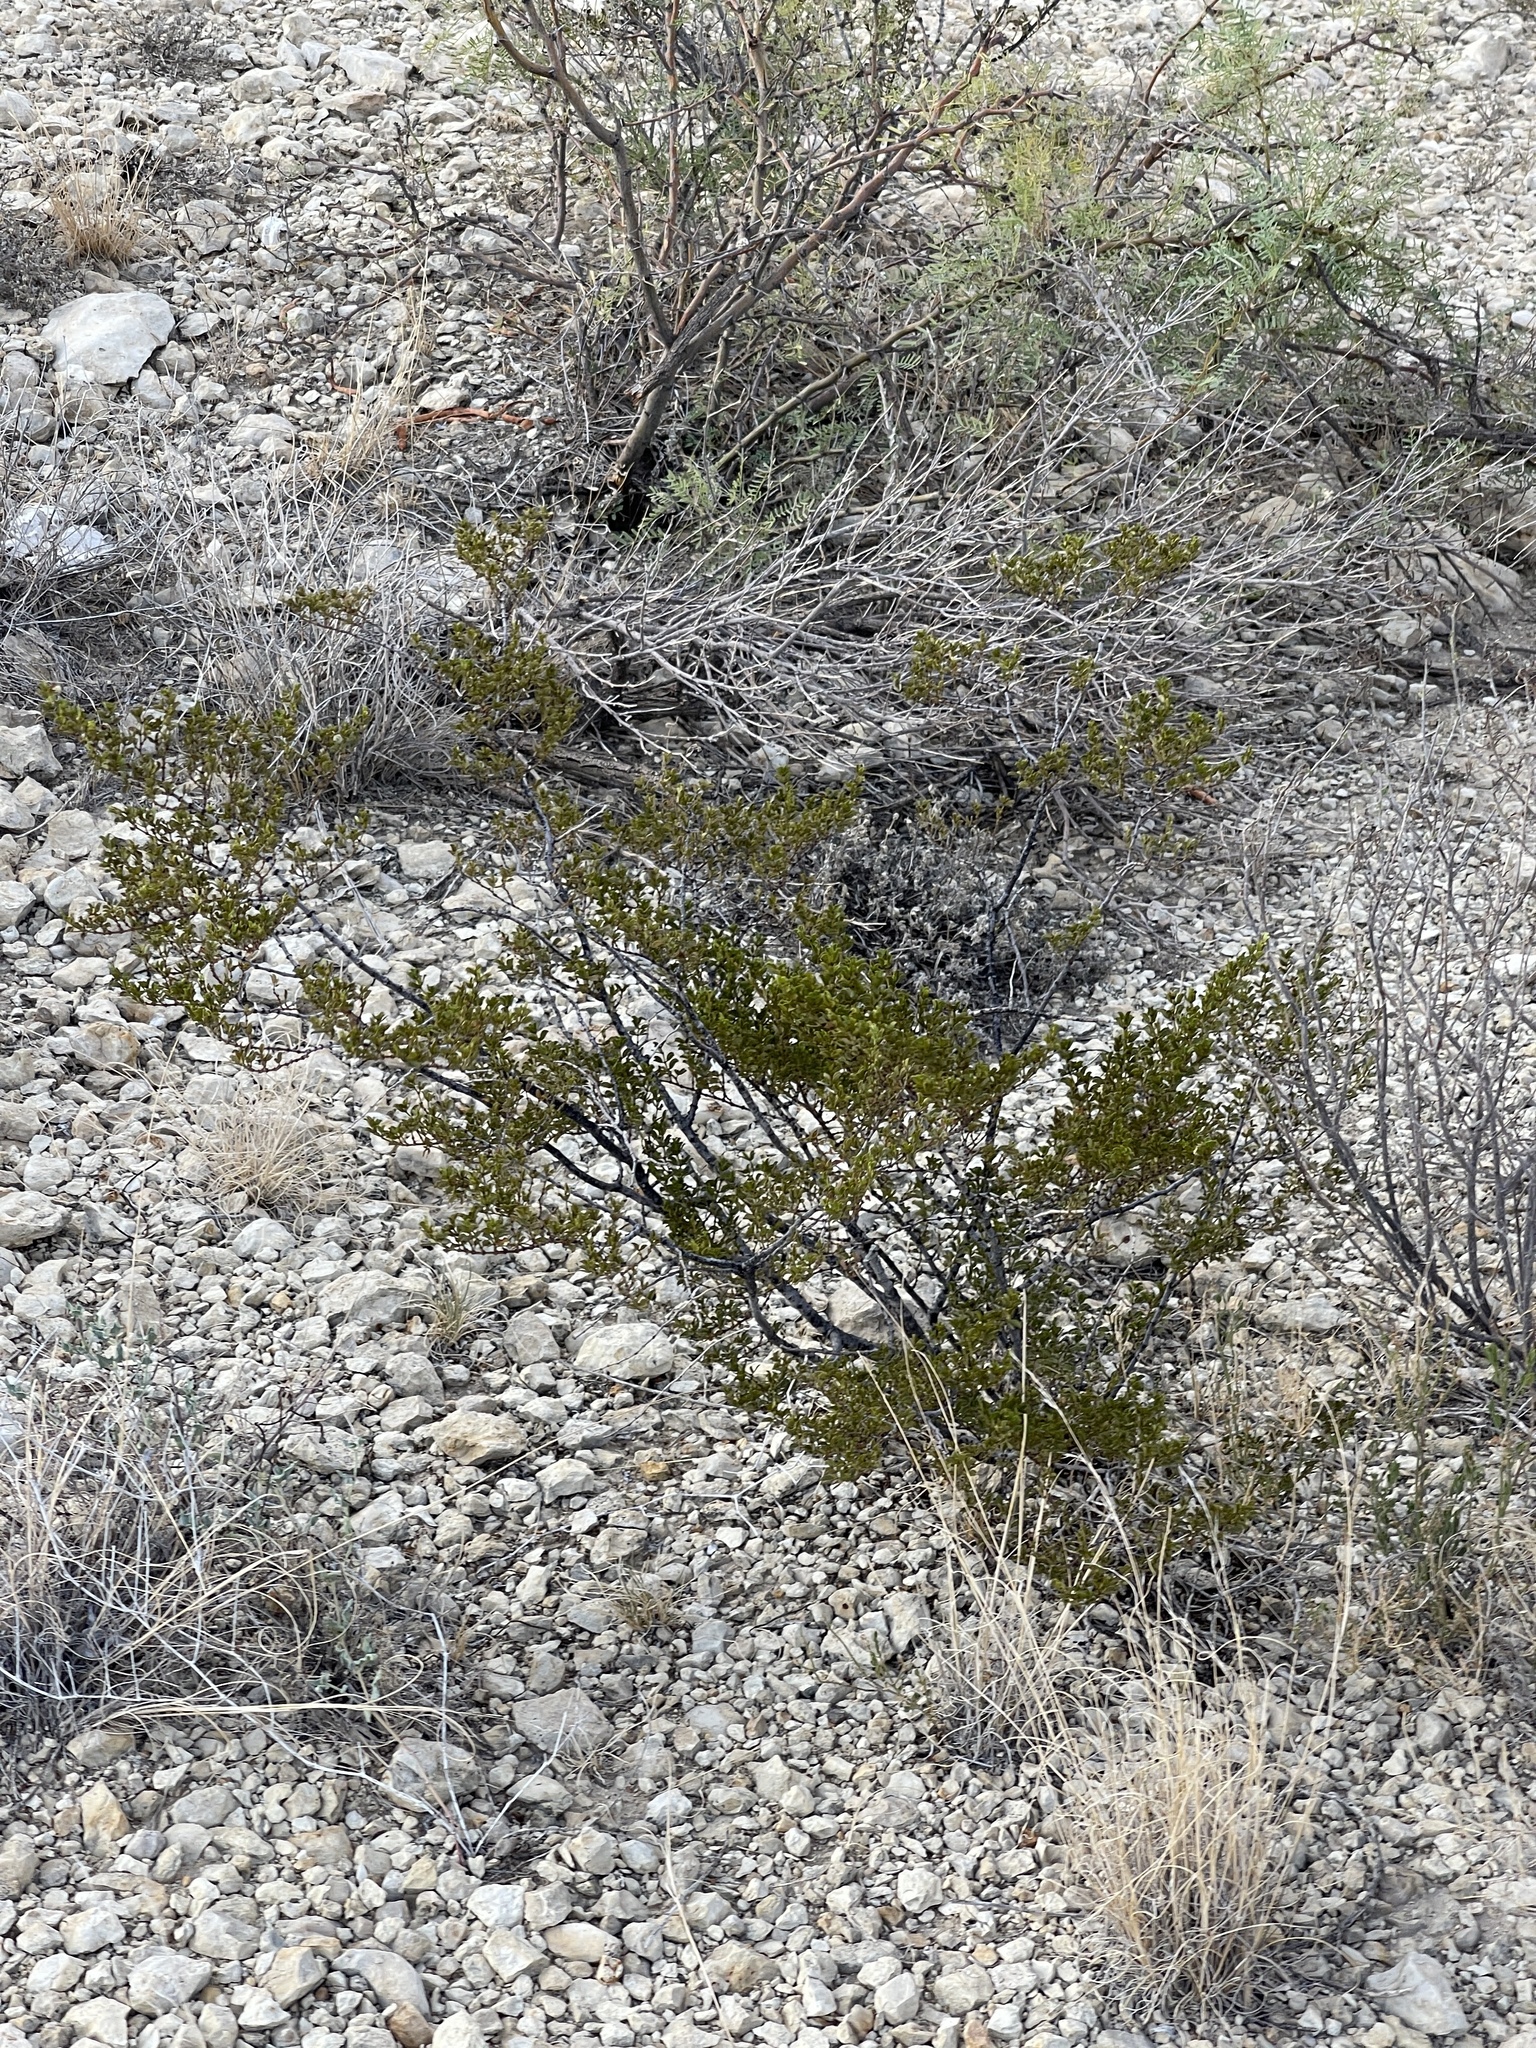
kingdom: Plantae
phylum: Tracheophyta
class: Magnoliopsida
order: Zygophyllales
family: Zygophyllaceae
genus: Larrea
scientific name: Larrea tridentata
